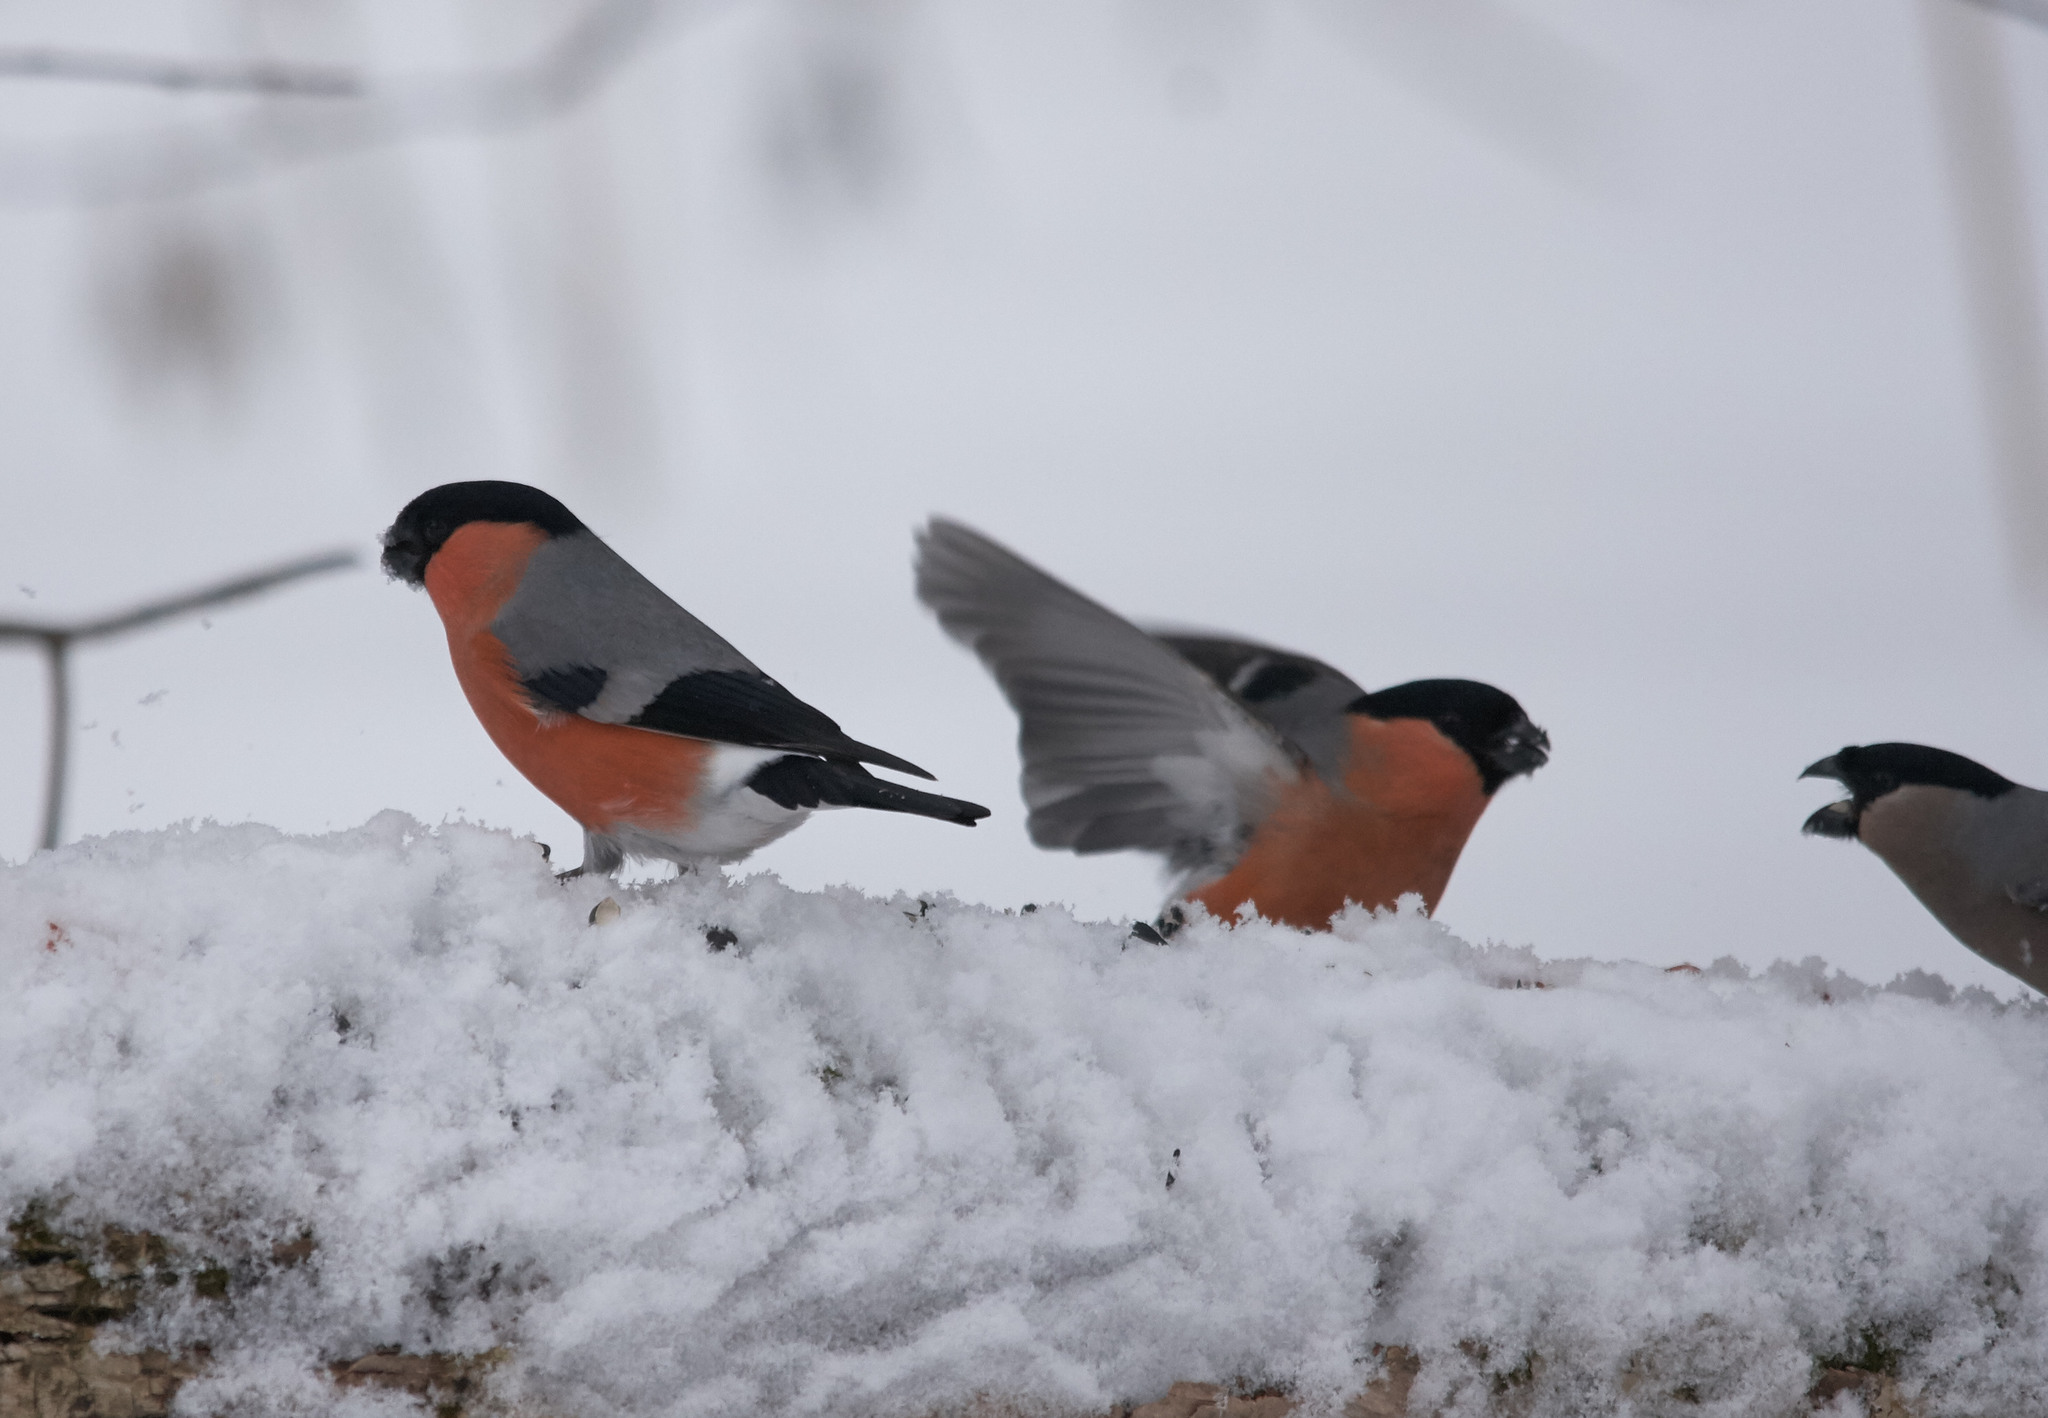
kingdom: Animalia
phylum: Chordata
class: Aves
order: Passeriformes
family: Fringillidae
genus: Pyrrhula
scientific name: Pyrrhula pyrrhula
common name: Eurasian bullfinch
